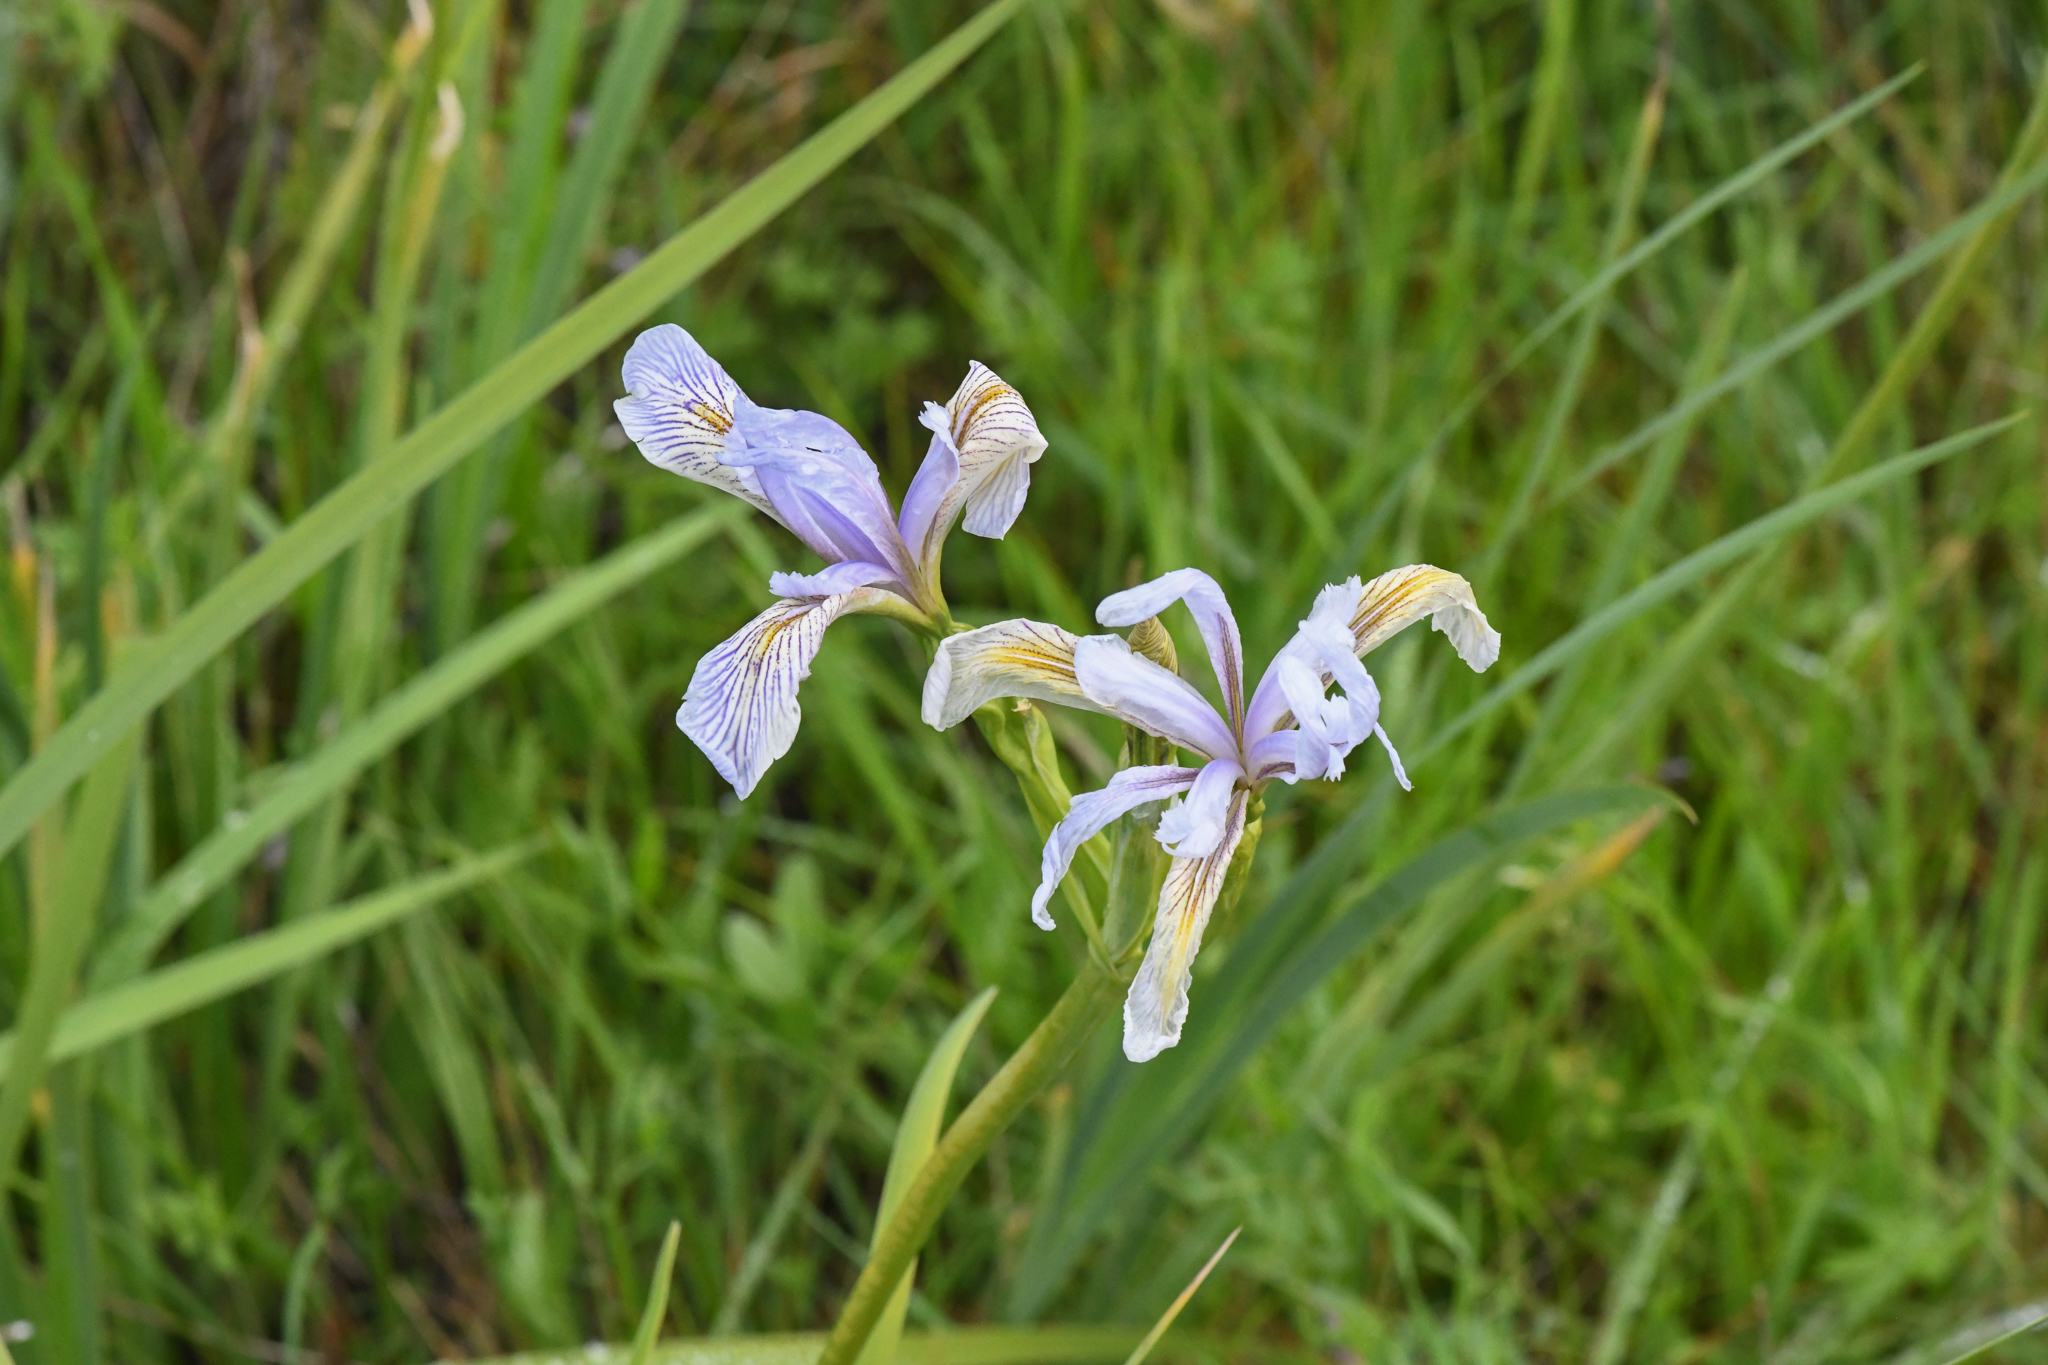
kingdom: Plantae
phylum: Tracheophyta
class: Liliopsida
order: Asparagales
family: Iridaceae
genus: Iris
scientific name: Iris longipetala
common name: Long-petal iris
